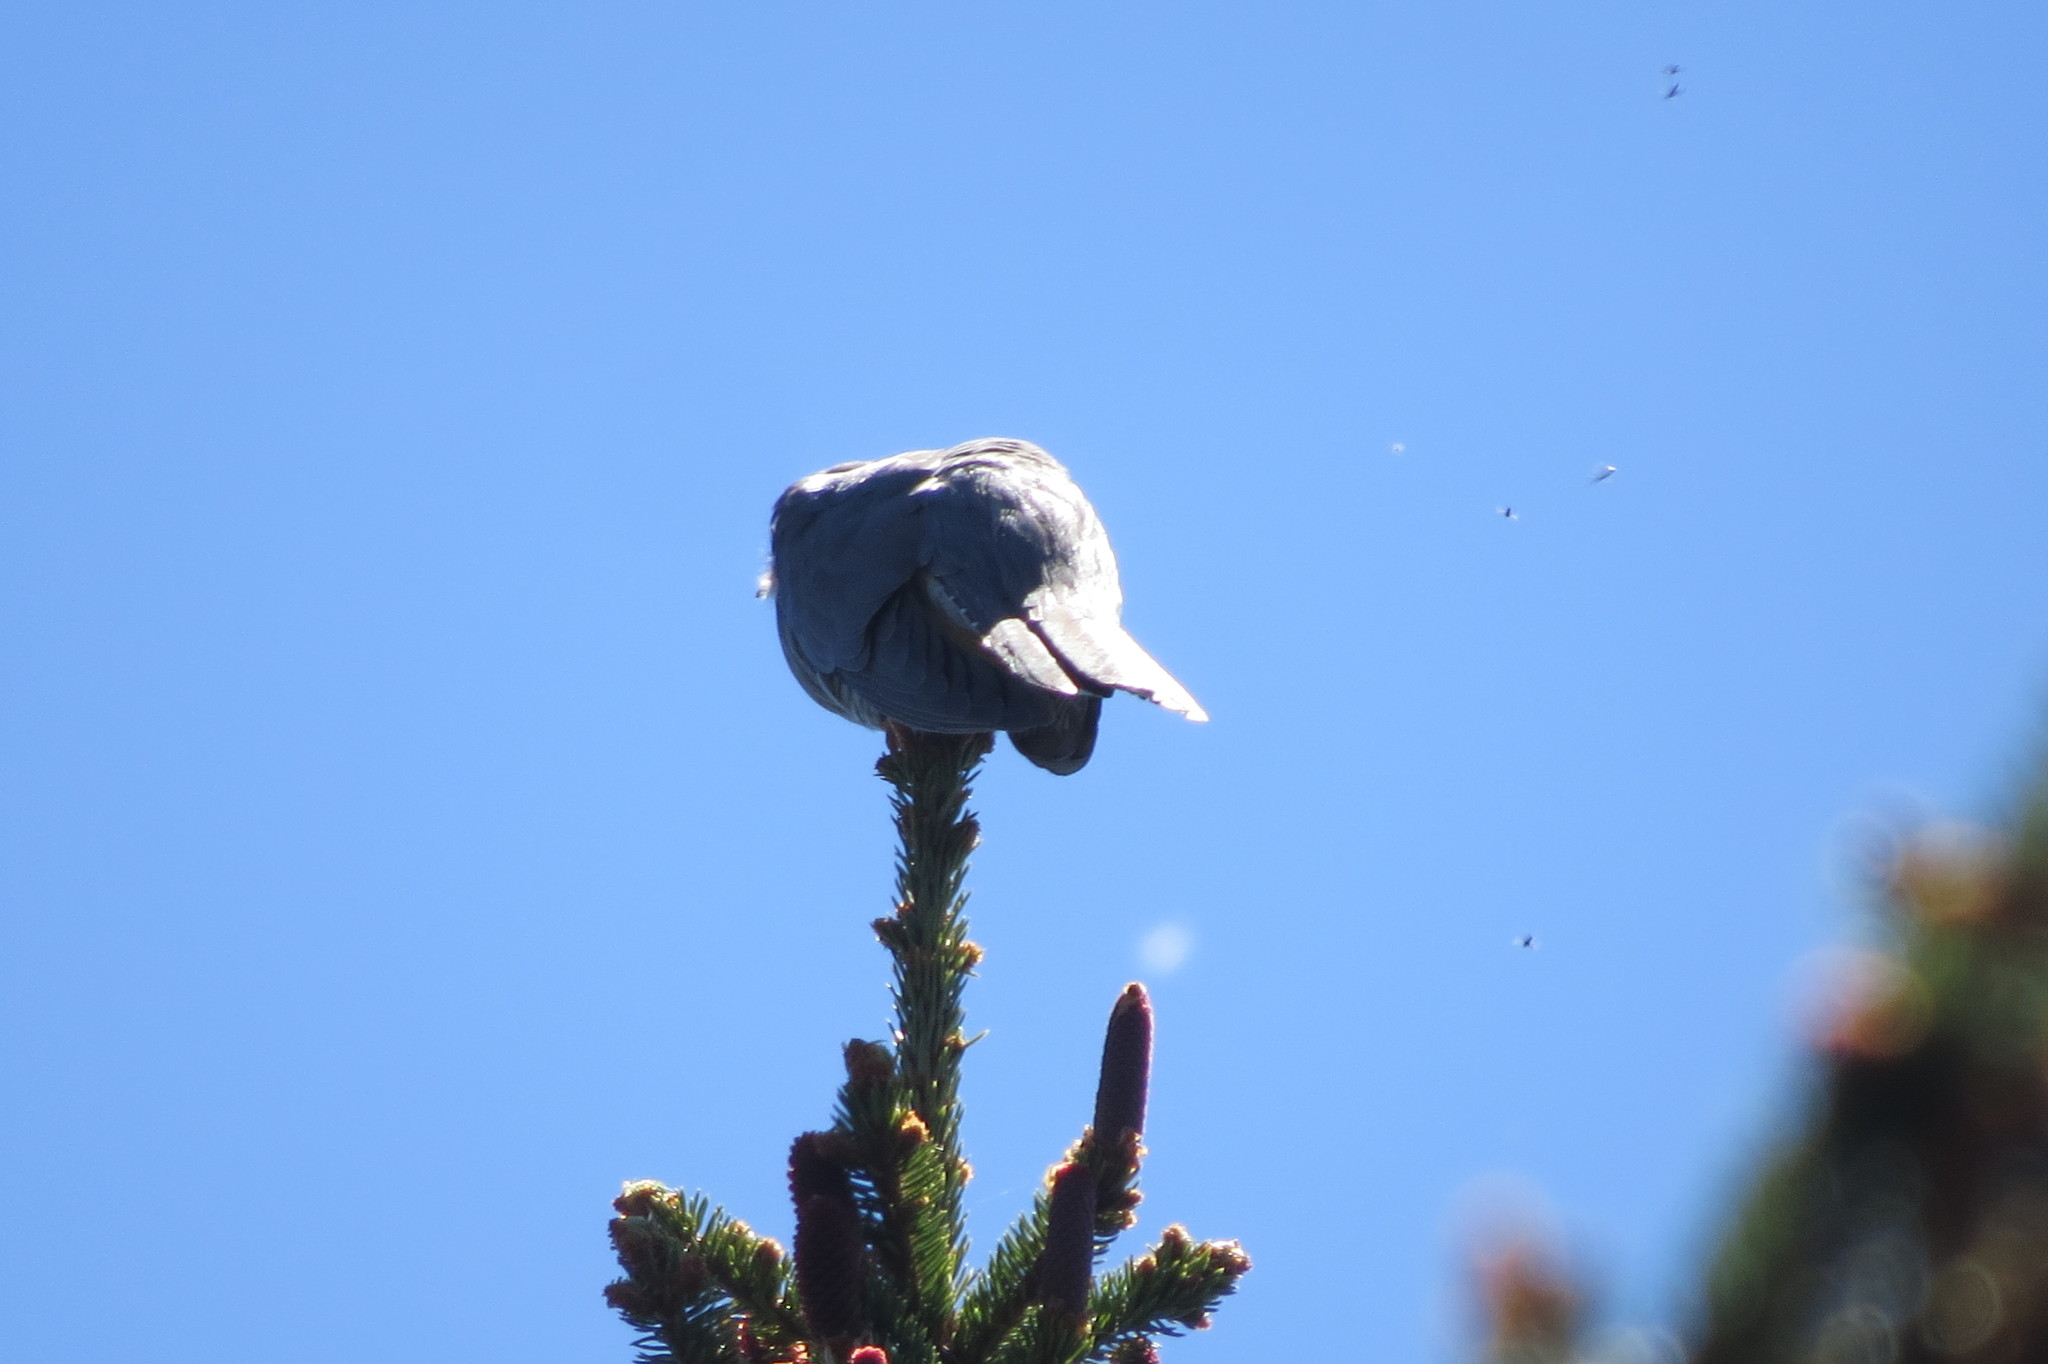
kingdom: Animalia
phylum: Chordata
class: Aves
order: Cuculiformes
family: Cuculidae
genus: Cuculus
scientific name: Cuculus canorus
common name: Common cuckoo
